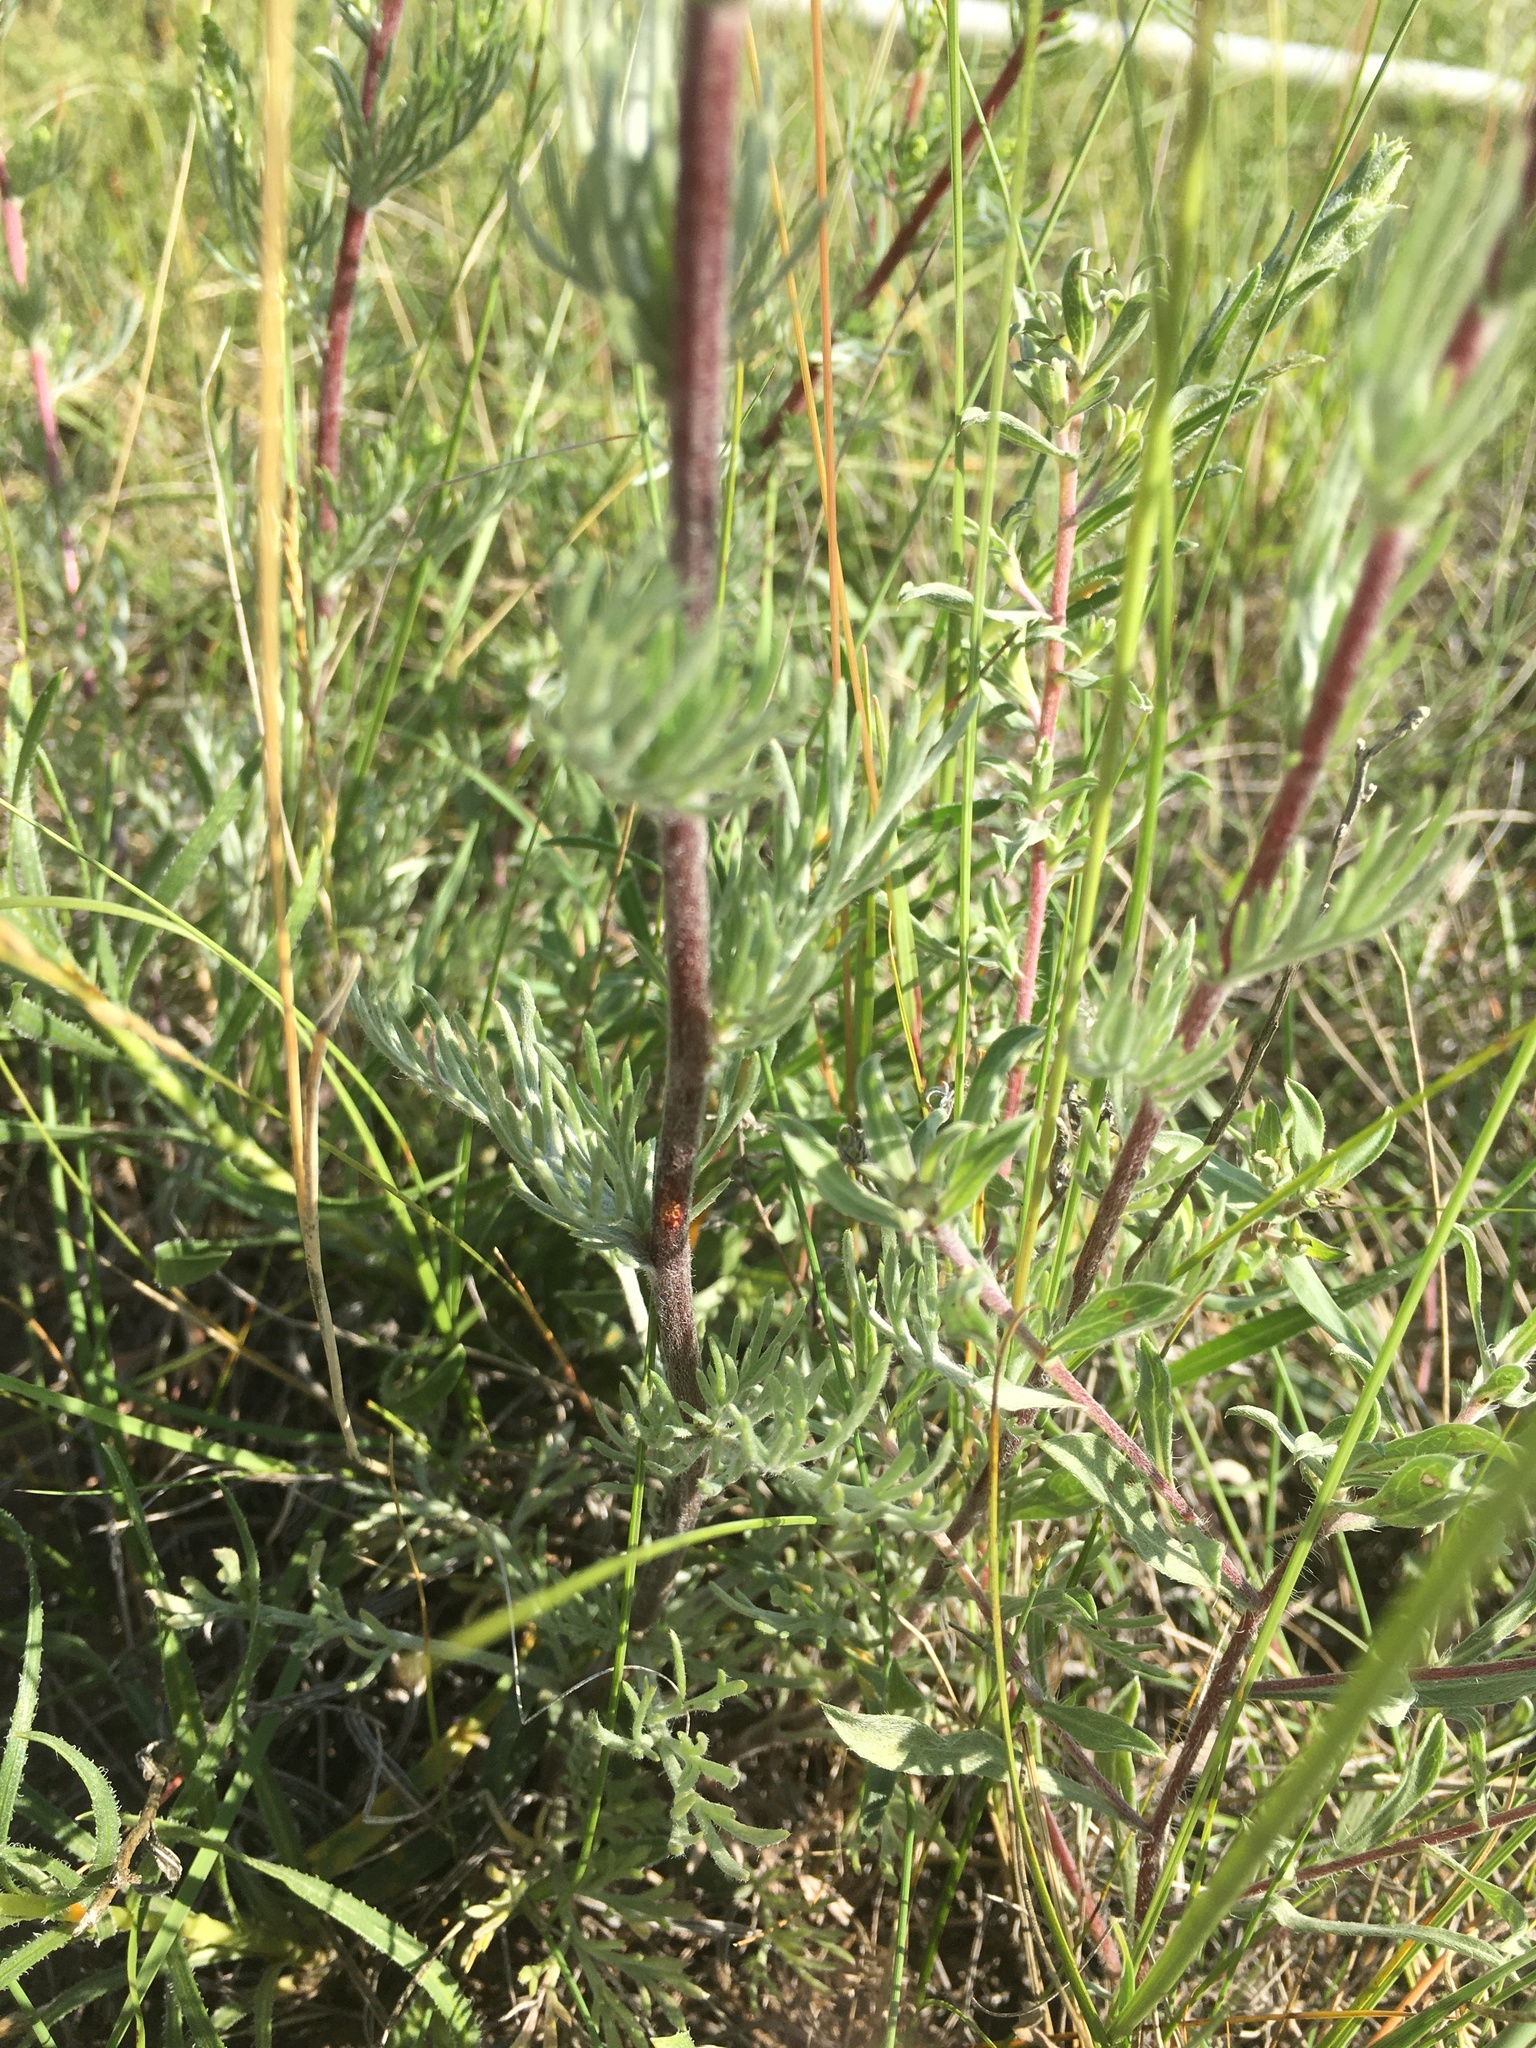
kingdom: Plantae
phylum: Tracheophyta
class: Magnoliopsida
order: Asterales
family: Asteraceae
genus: Artemisia
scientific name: Artemisia campestris
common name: Field wormwood
